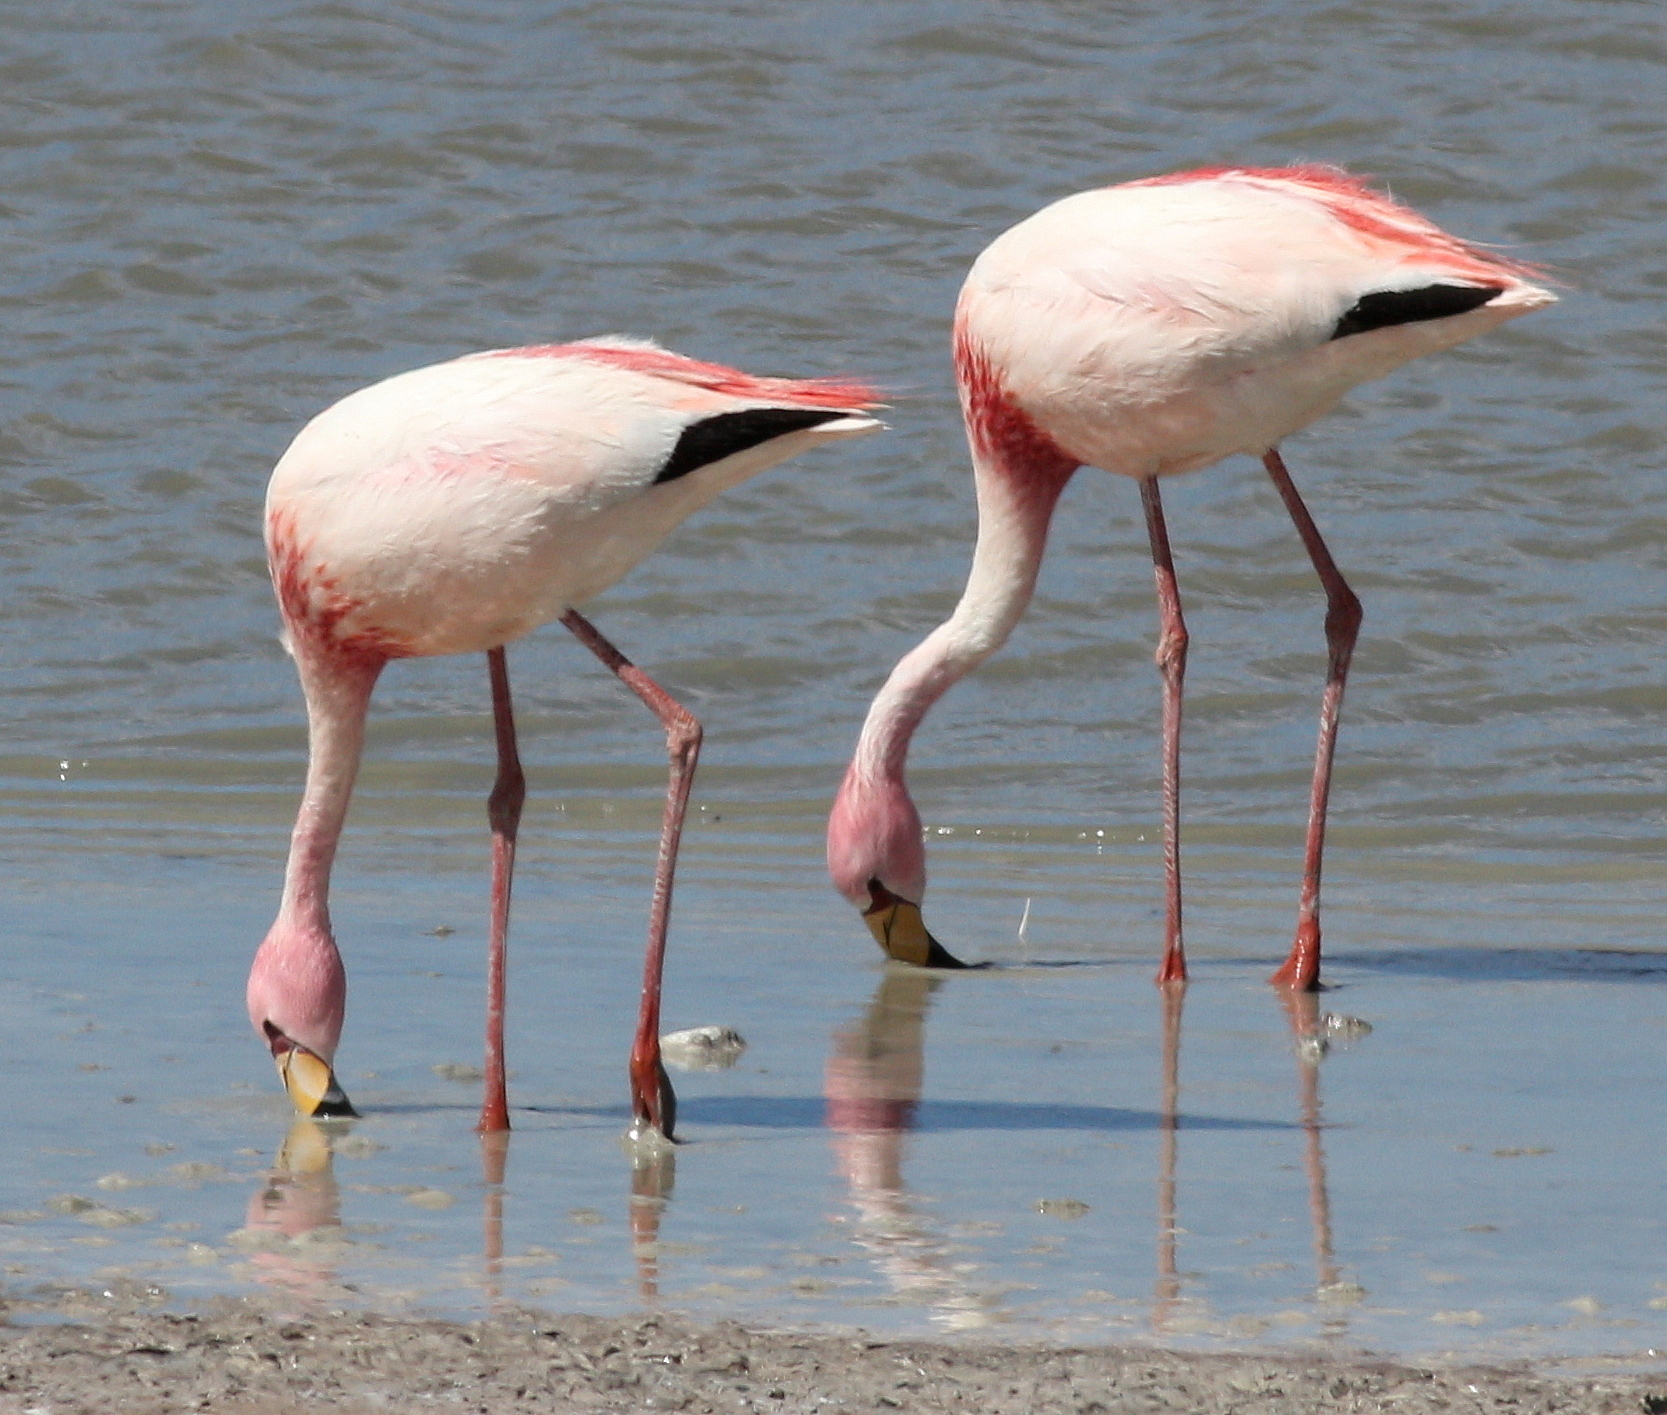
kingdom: Animalia
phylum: Chordata
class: Aves
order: Phoenicopteriformes
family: Phoenicopteridae
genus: Phoenicoparrus
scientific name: Phoenicoparrus jamesi
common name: James's flamingo
